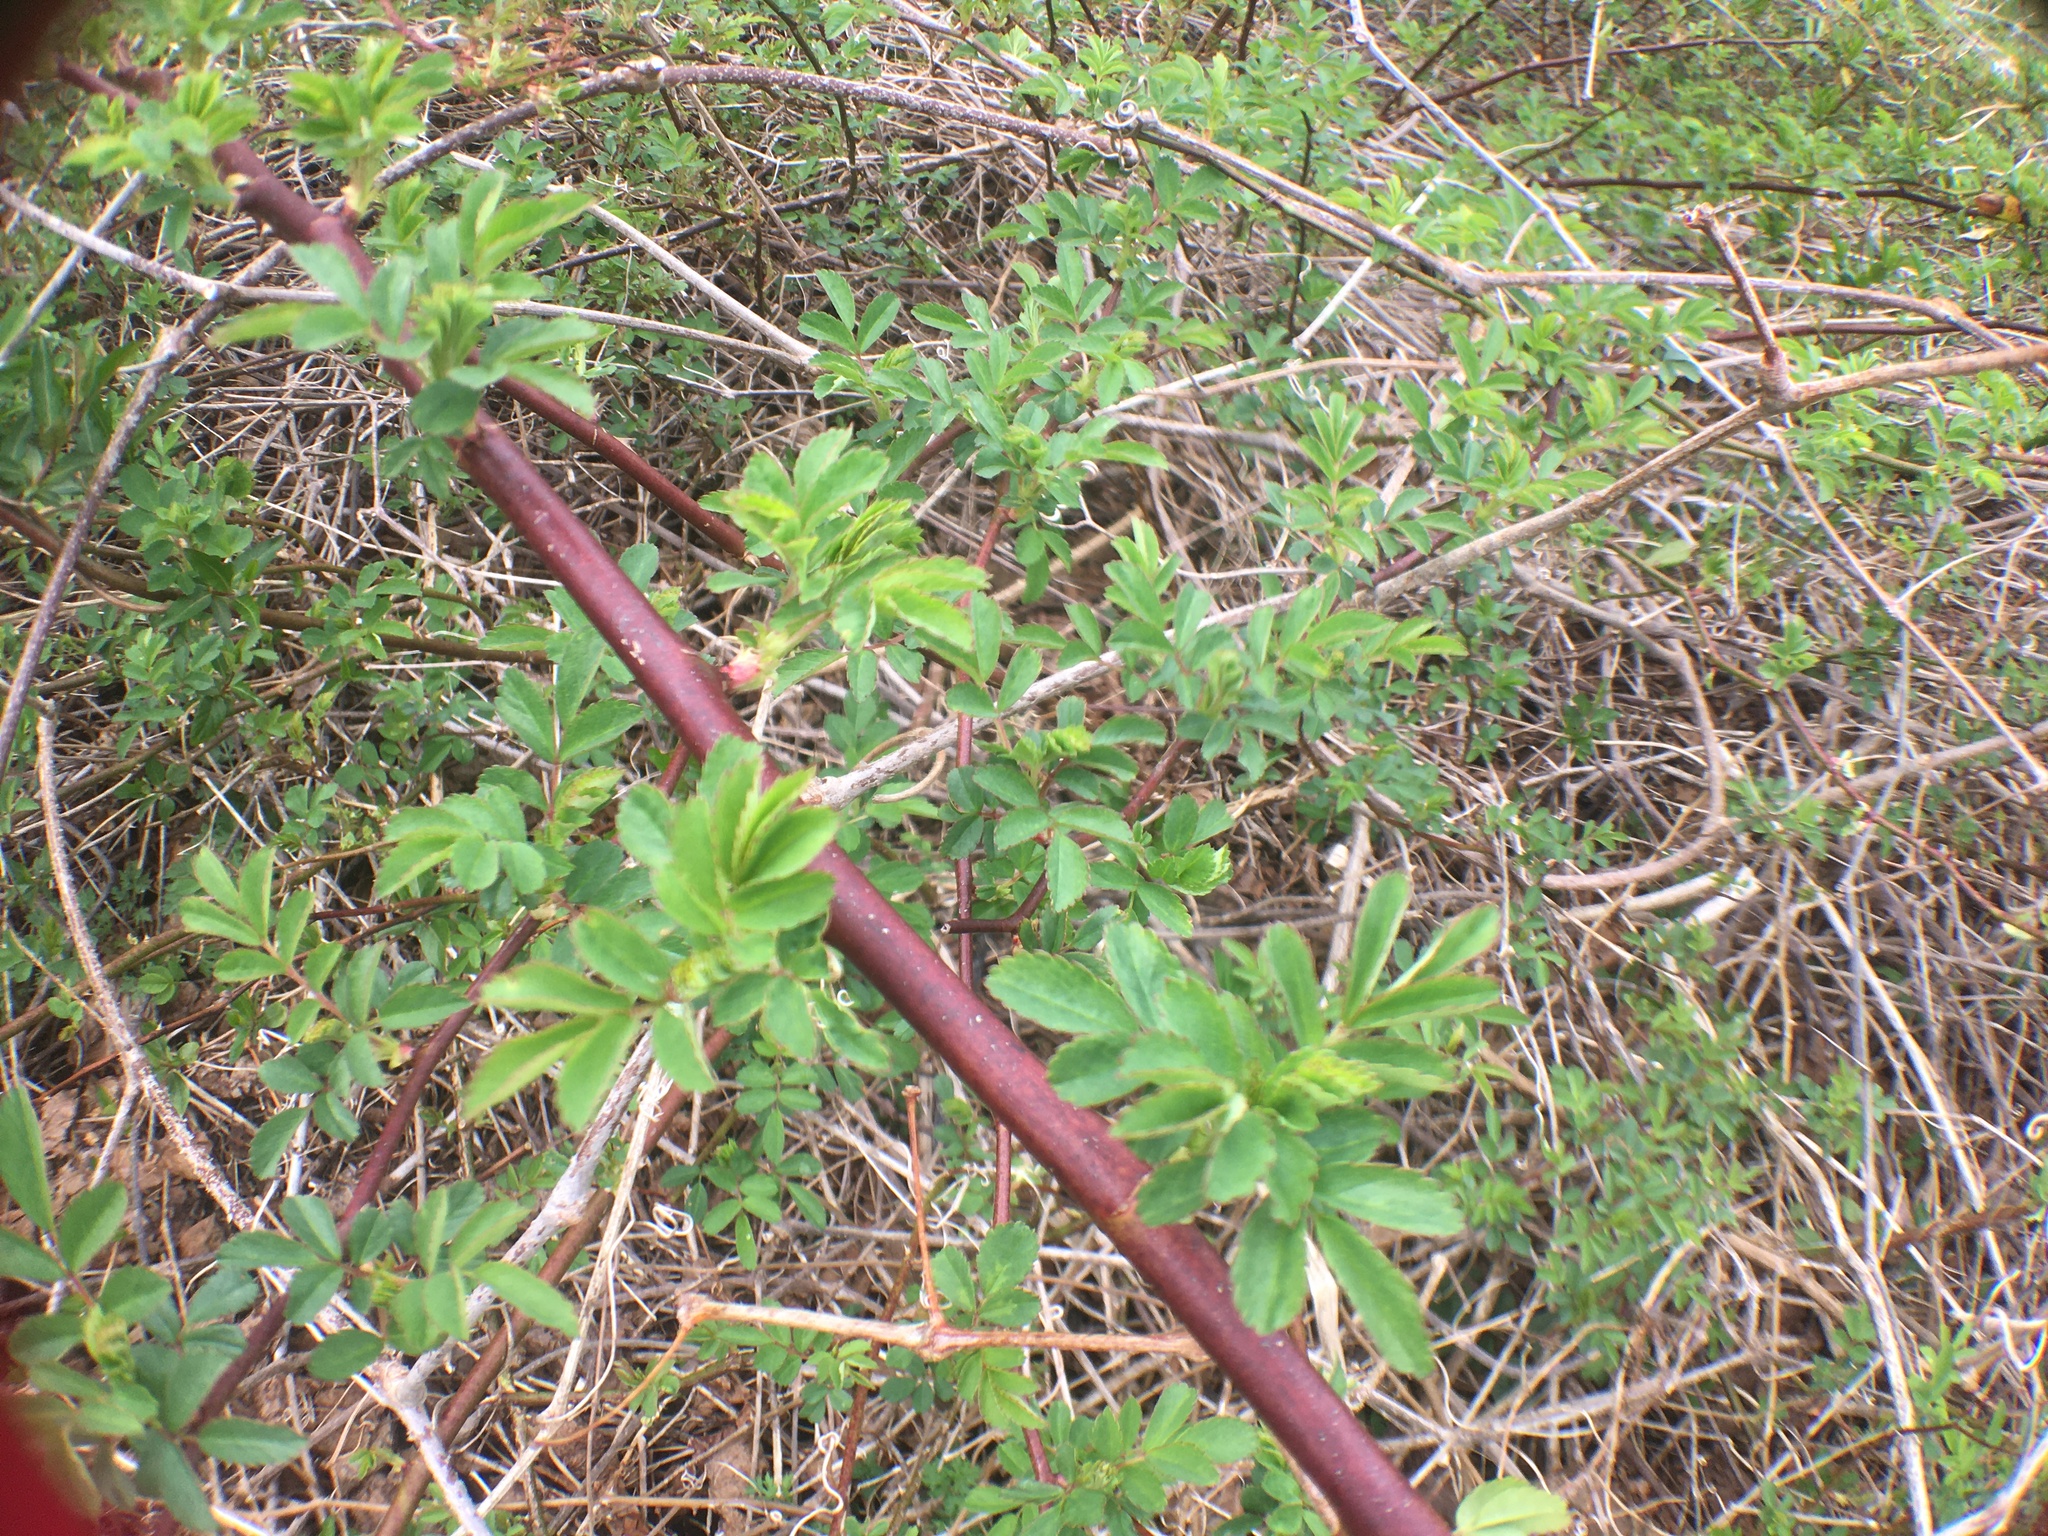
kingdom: Plantae
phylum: Tracheophyta
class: Magnoliopsida
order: Rosales
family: Rosaceae
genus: Rosa
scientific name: Rosa multiflora
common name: Multiflora rose
